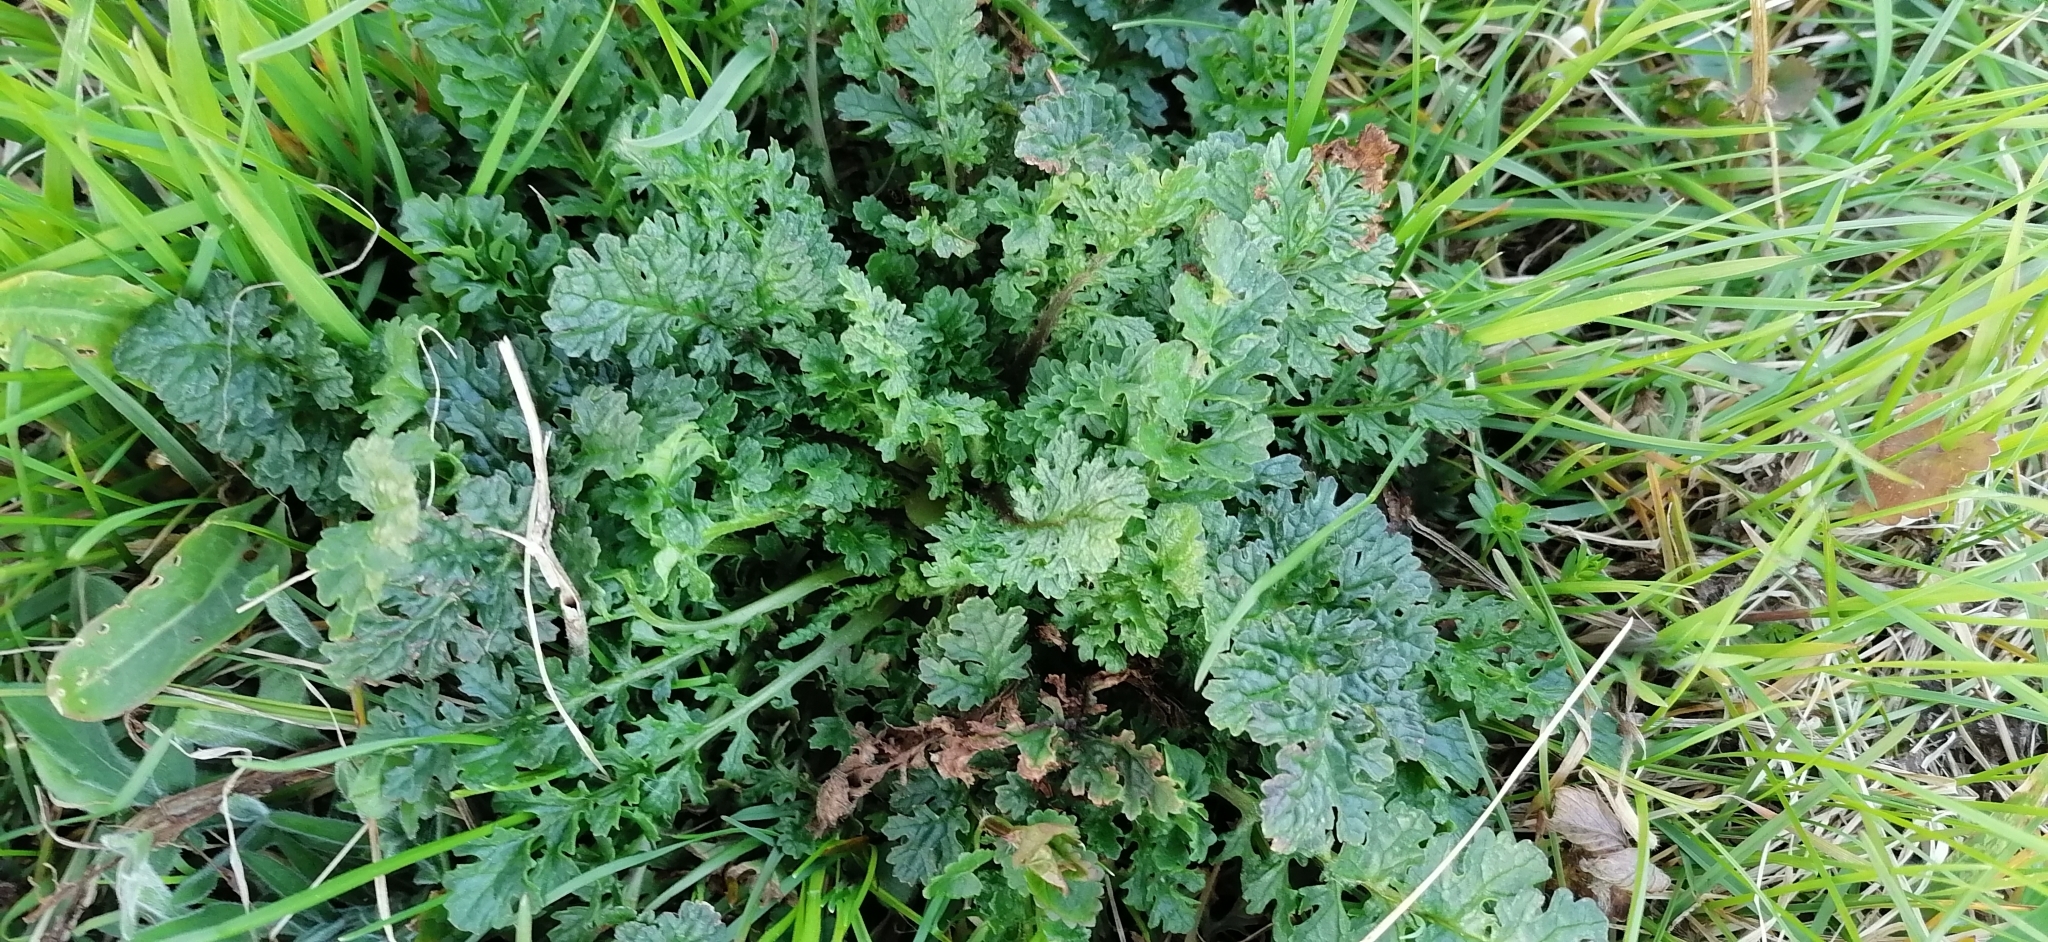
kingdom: Plantae
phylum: Tracheophyta
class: Magnoliopsida
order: Asterales
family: Asteraceae
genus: Jacobaea
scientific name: Jacobaea vulgaris
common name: Stinking willie
